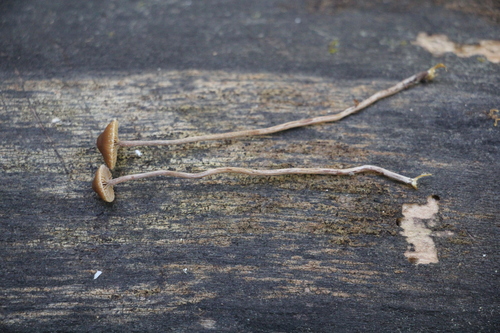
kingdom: Fungi
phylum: Basidiomycota
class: Agaricomycetes
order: Agaricales
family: Strophariaceae
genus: Deconica
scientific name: Deconica crobula
